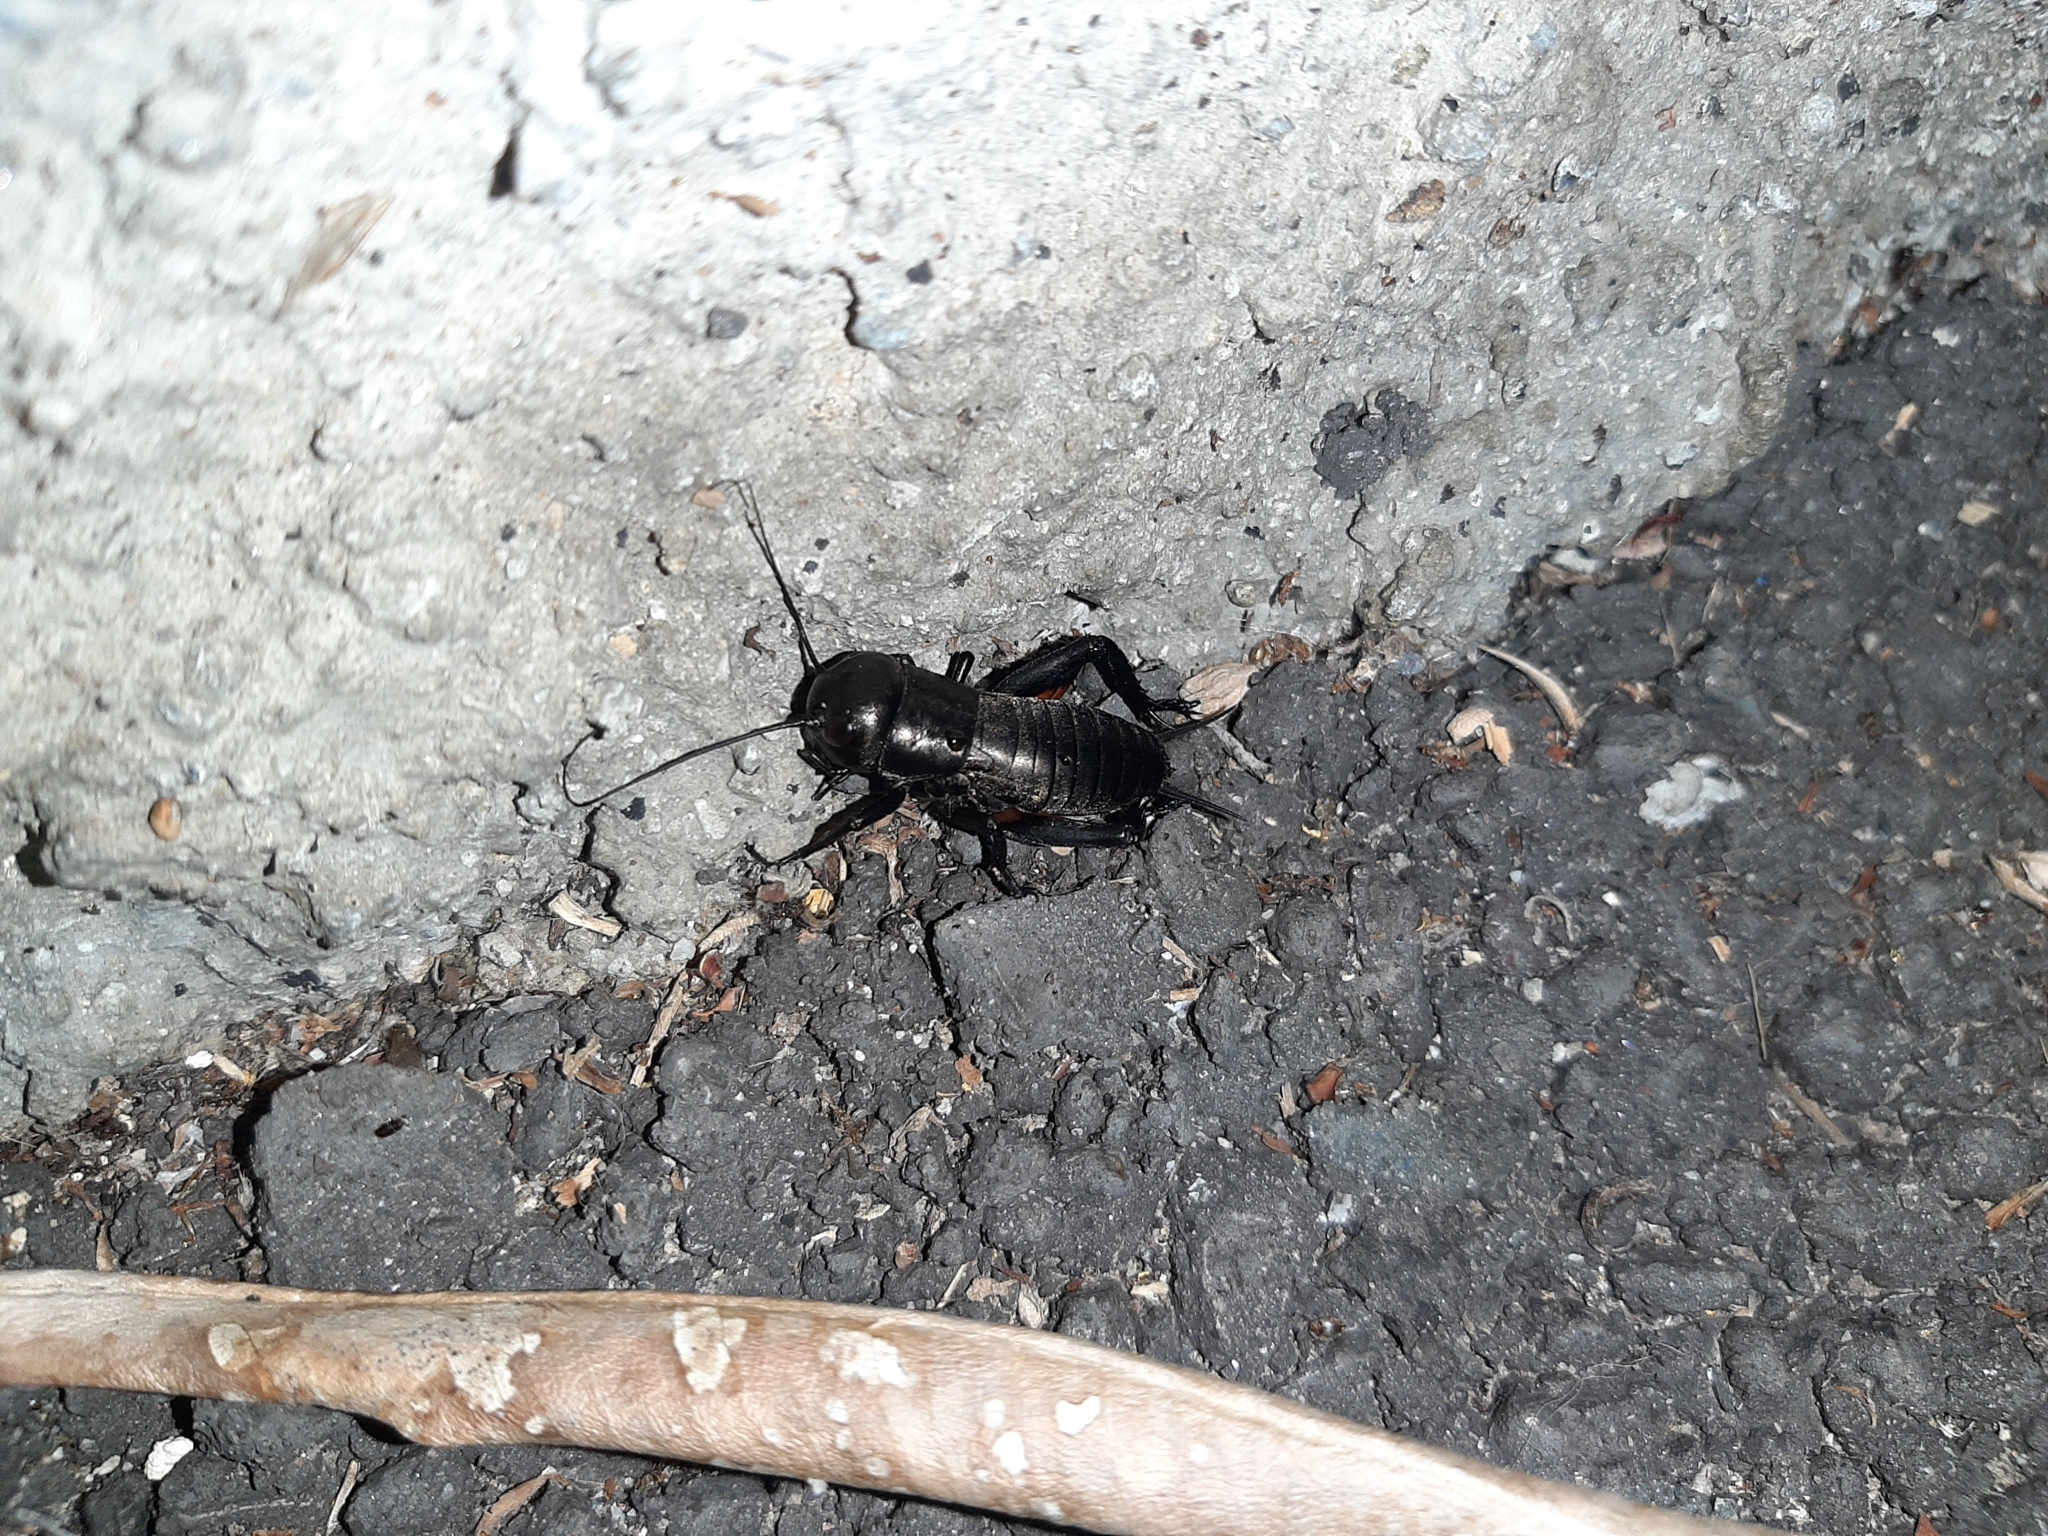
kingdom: Animalia
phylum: Arthropoda
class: Insecta
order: Orthoptera
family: Gryllidae
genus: Gryllus
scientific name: Gryllus campestris
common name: Field cricket
